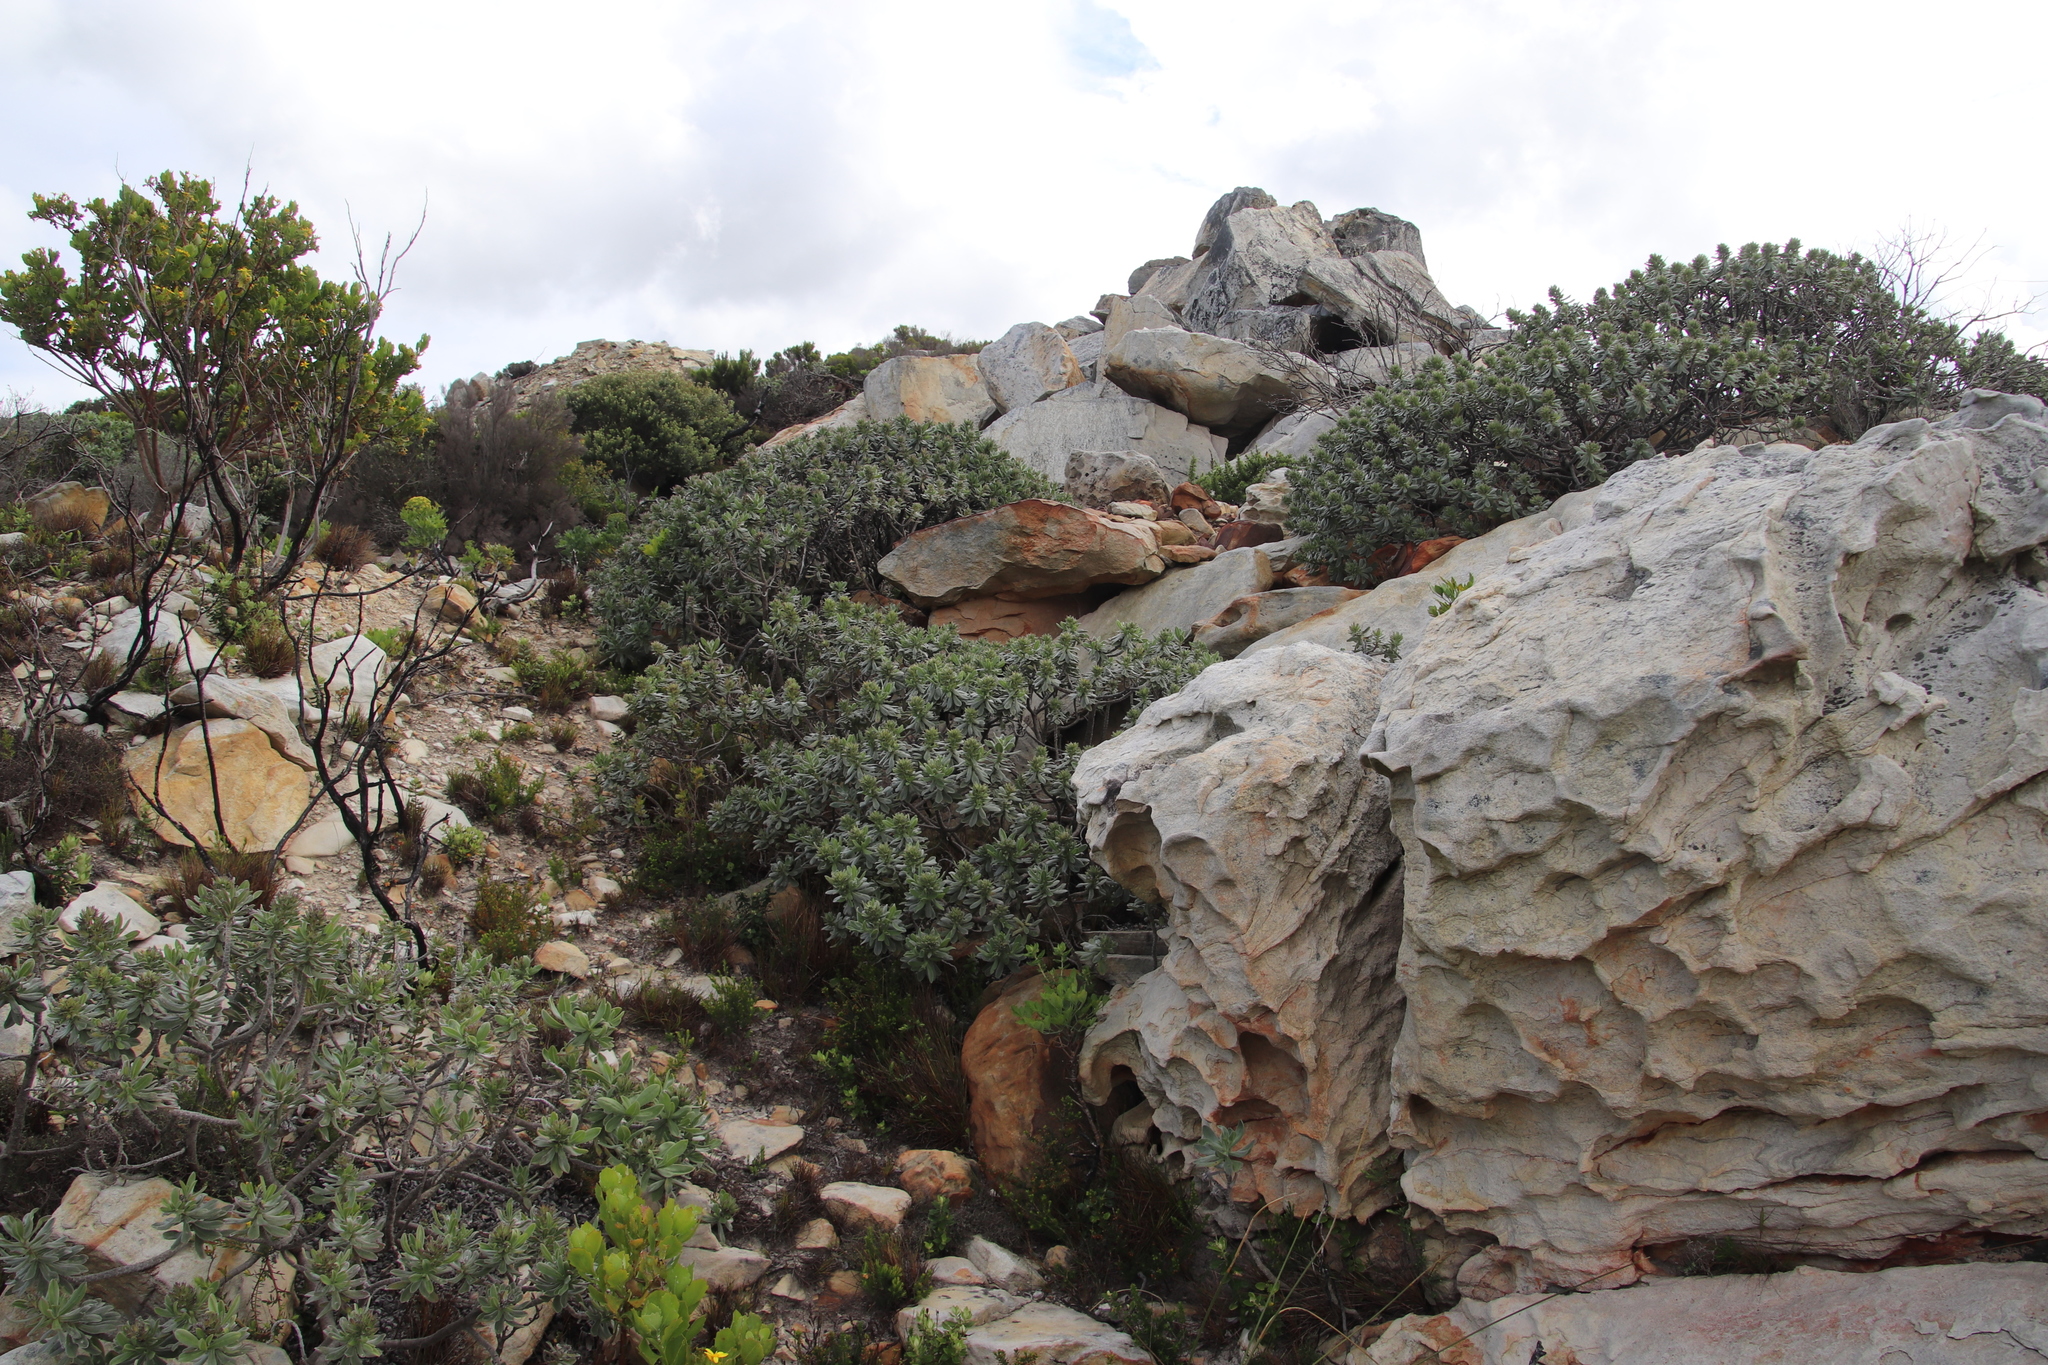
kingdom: Plantae
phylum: Tracheophyta
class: Magnoliopsida
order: Boraginales
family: Boraginaceae
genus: Lobostemon
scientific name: Lobostemon montanus
